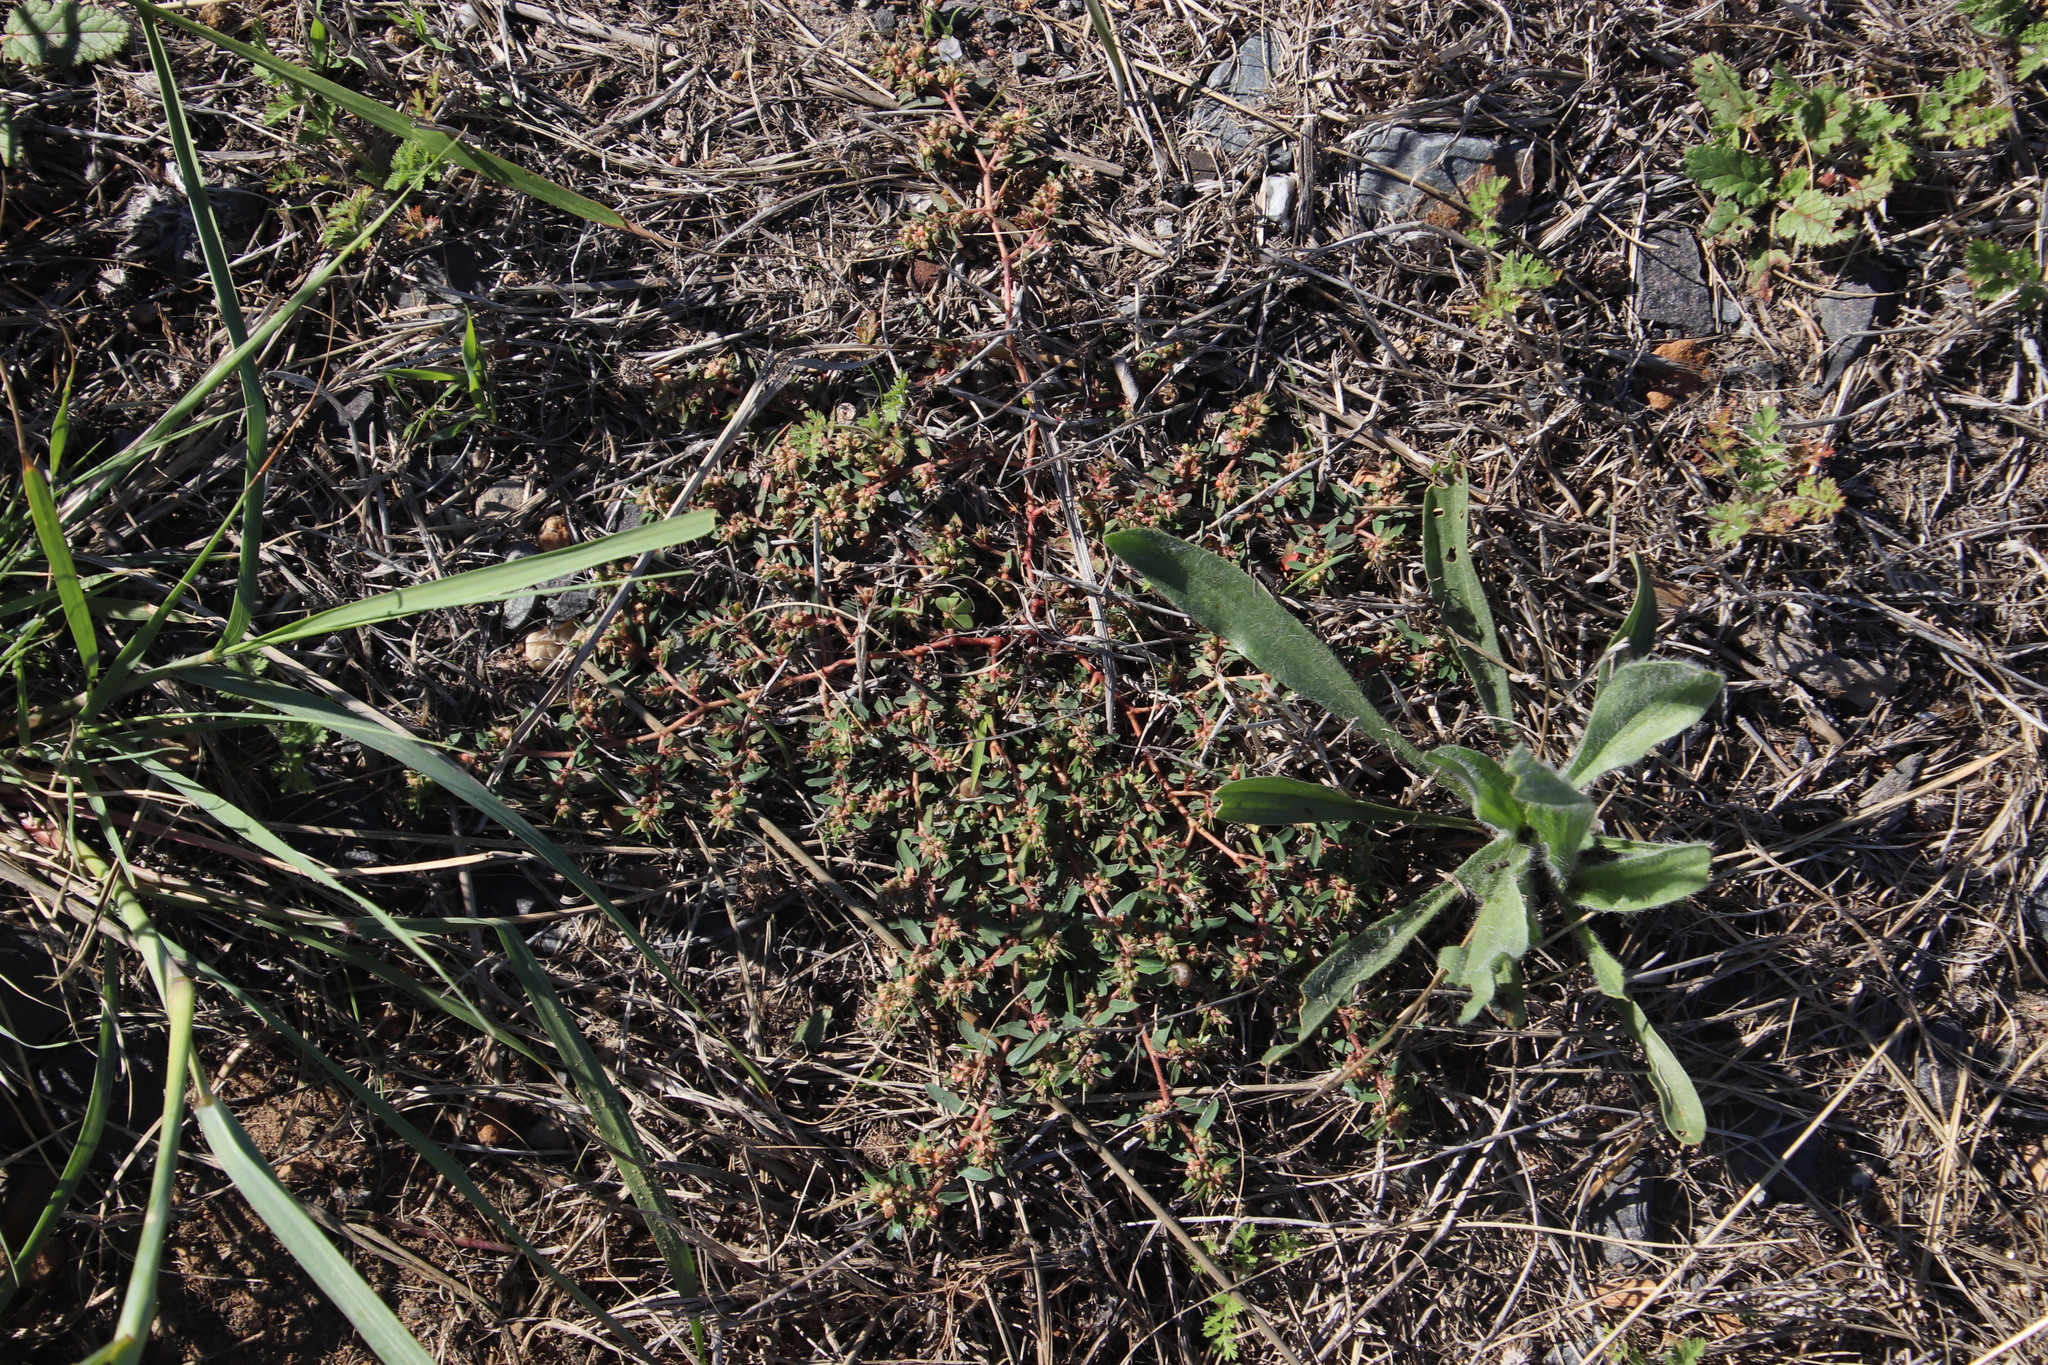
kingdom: Plantae
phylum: Tracheophyta
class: Magnoliopsida
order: Malpighiales
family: Euphorbiaceae
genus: Euphorbia
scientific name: Euphorbia maculata
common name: Spotted spurge
